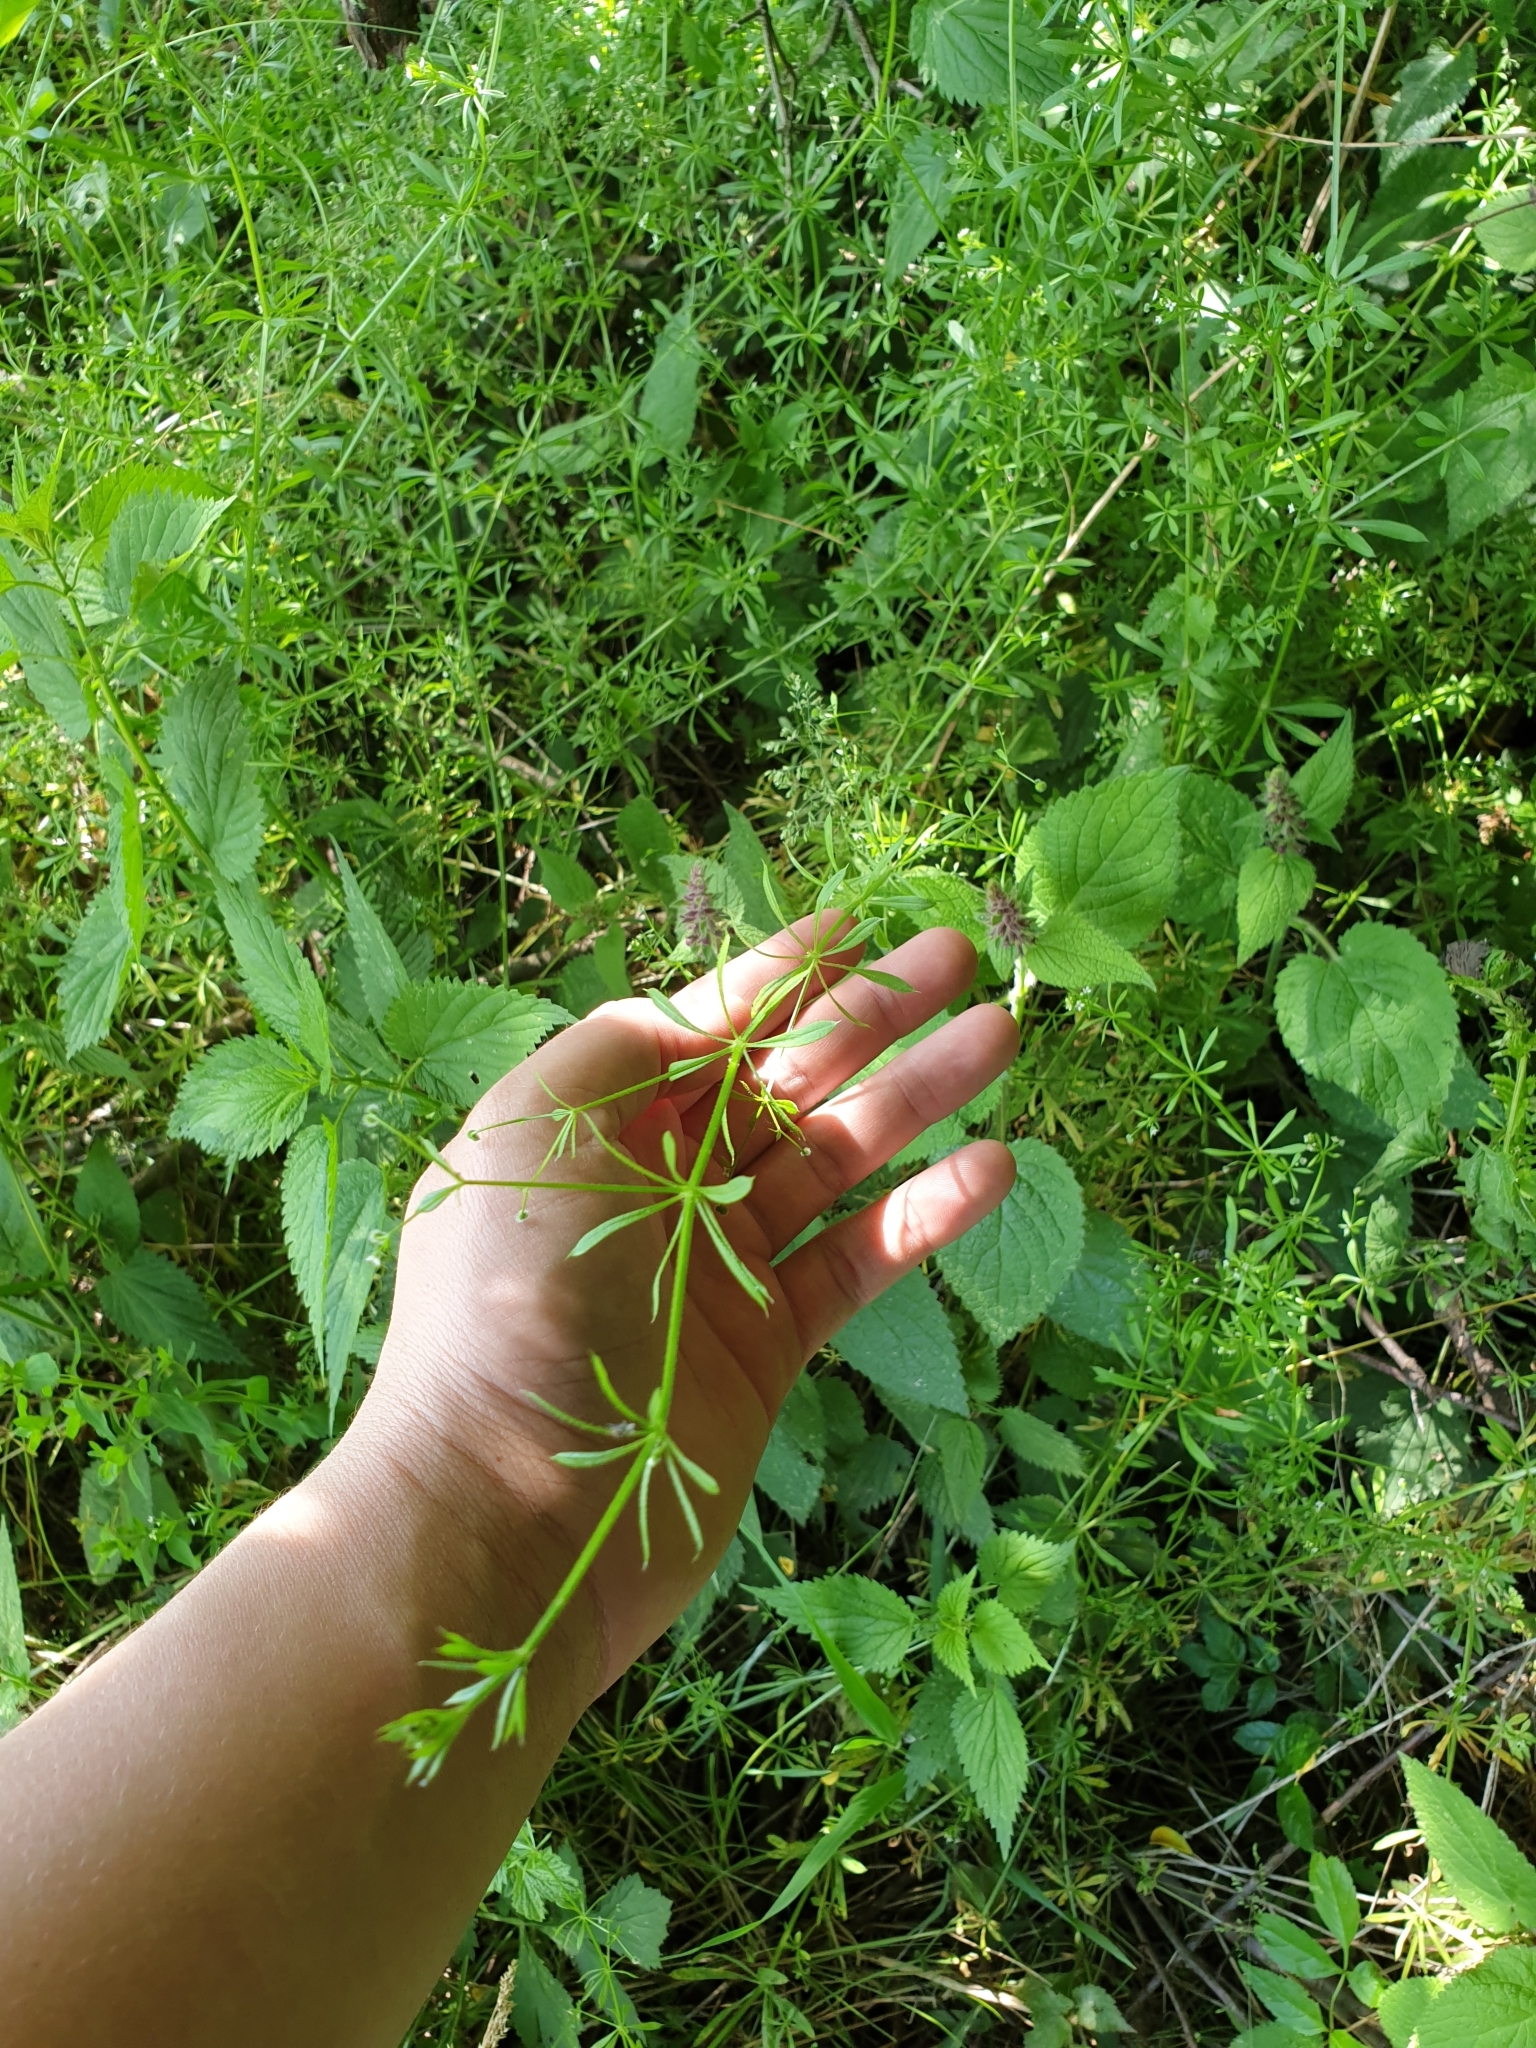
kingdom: Plantae
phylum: Tracheophyta
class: Magnoliopsida
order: Gentianales
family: Rubiaceae
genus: Galium
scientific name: Galium aparine
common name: Cleavers
